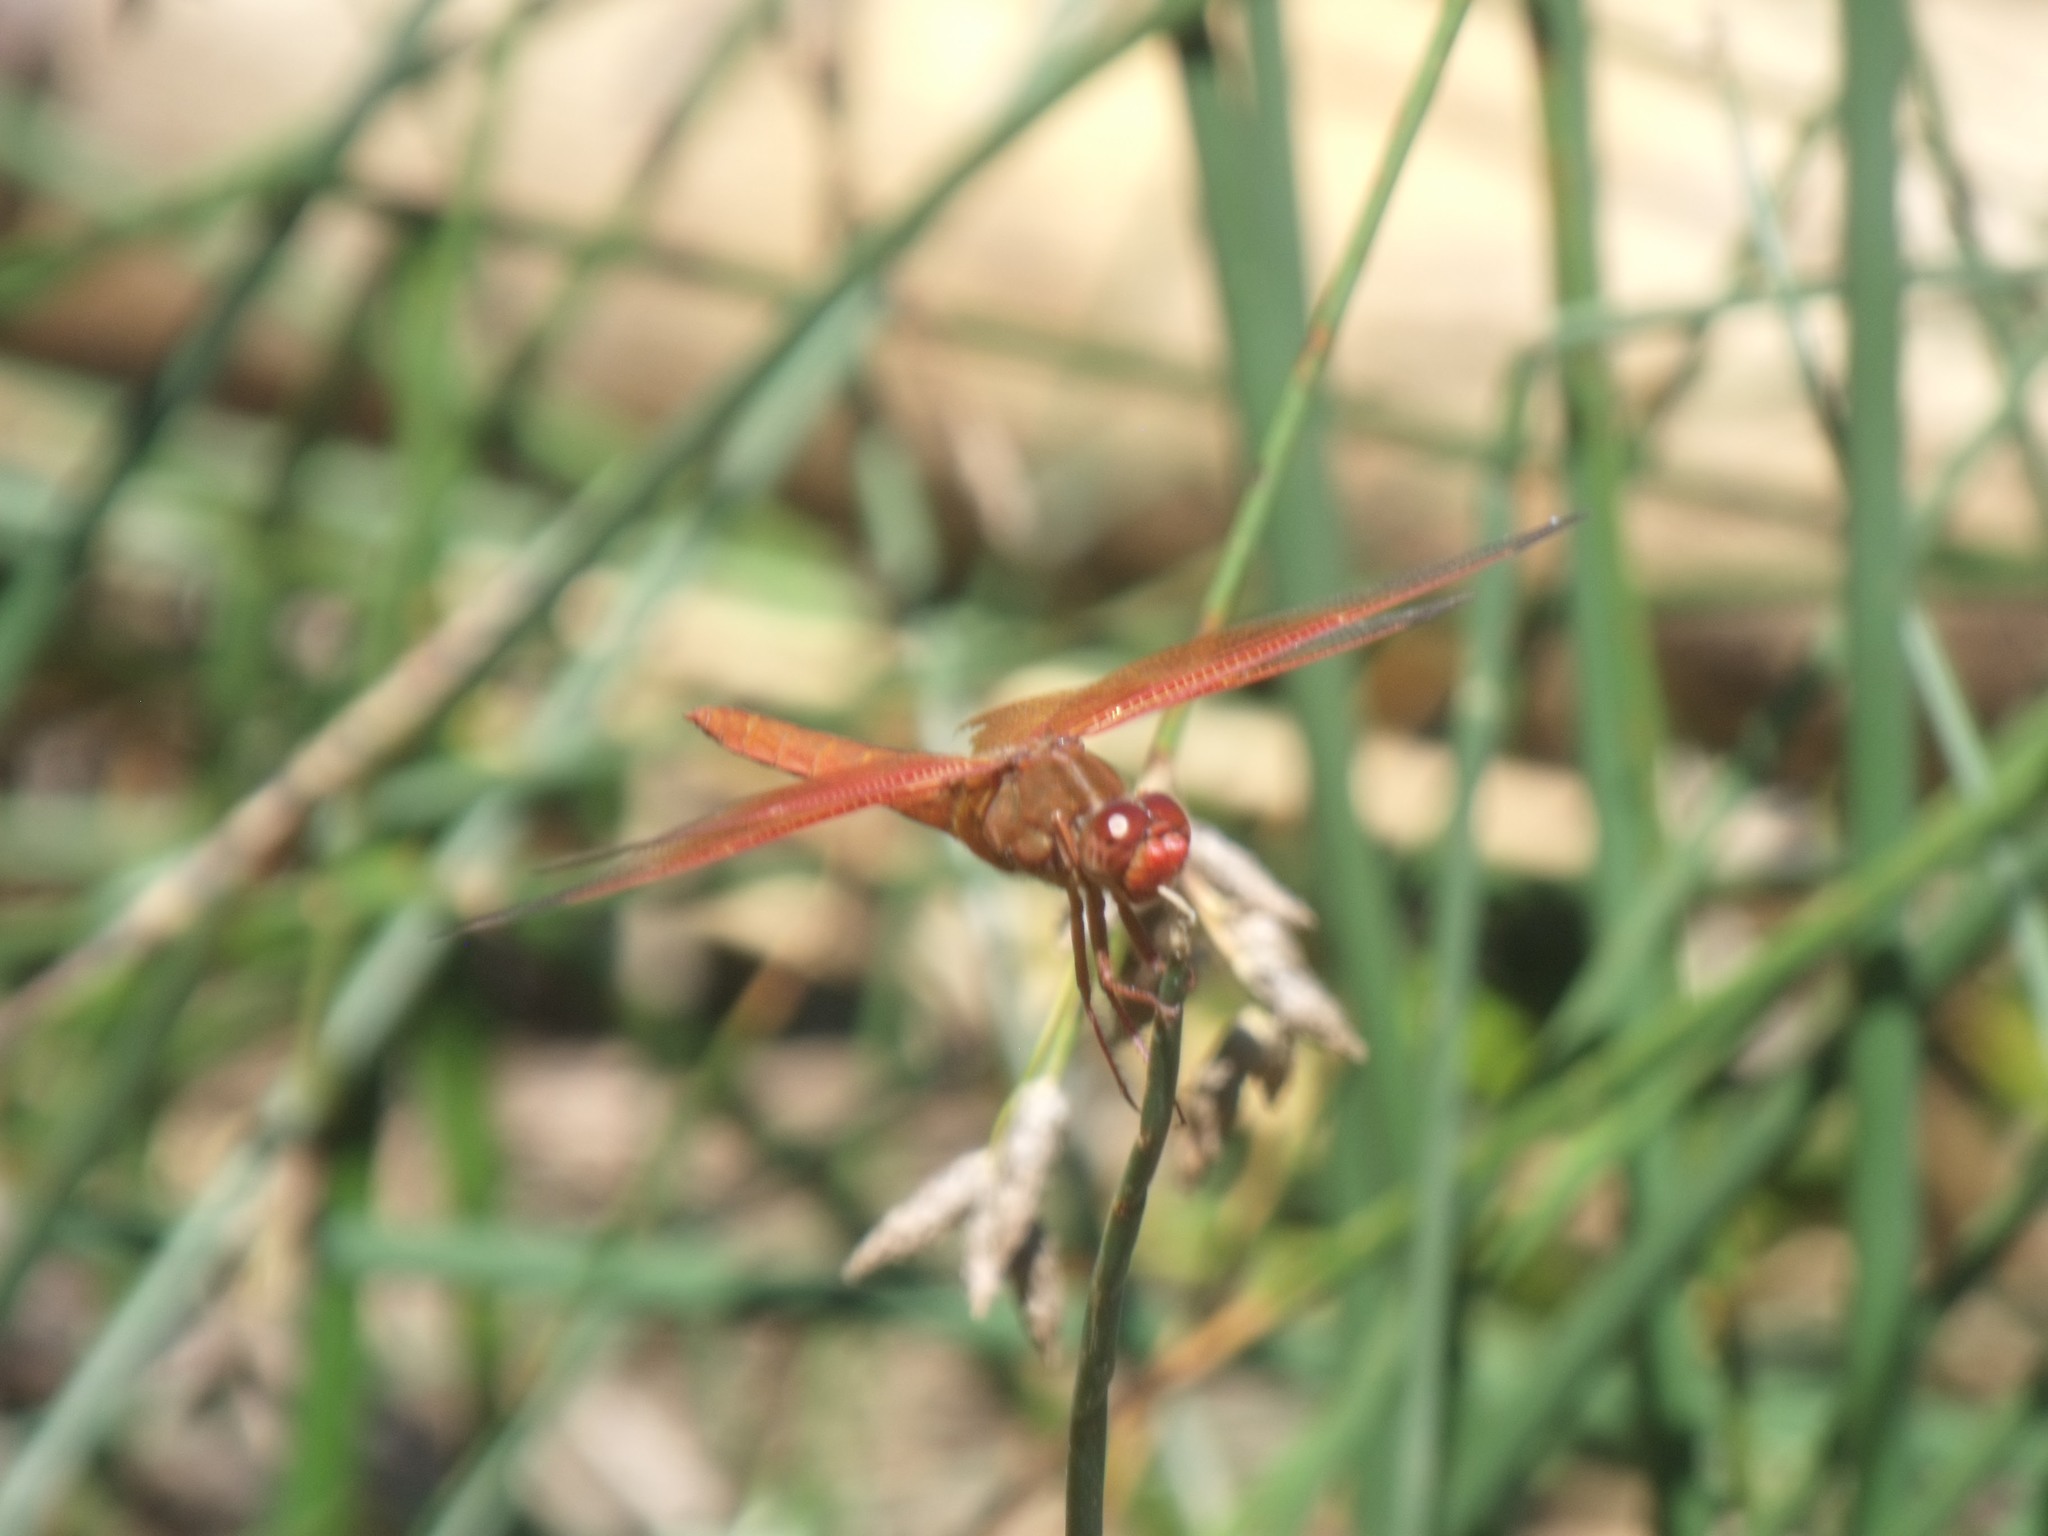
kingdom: Animalia
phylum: Arthropoda
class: Insecta
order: Odonata
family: Libellulidae
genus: Libellula
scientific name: Libellula saturata
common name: Flame skimmer
